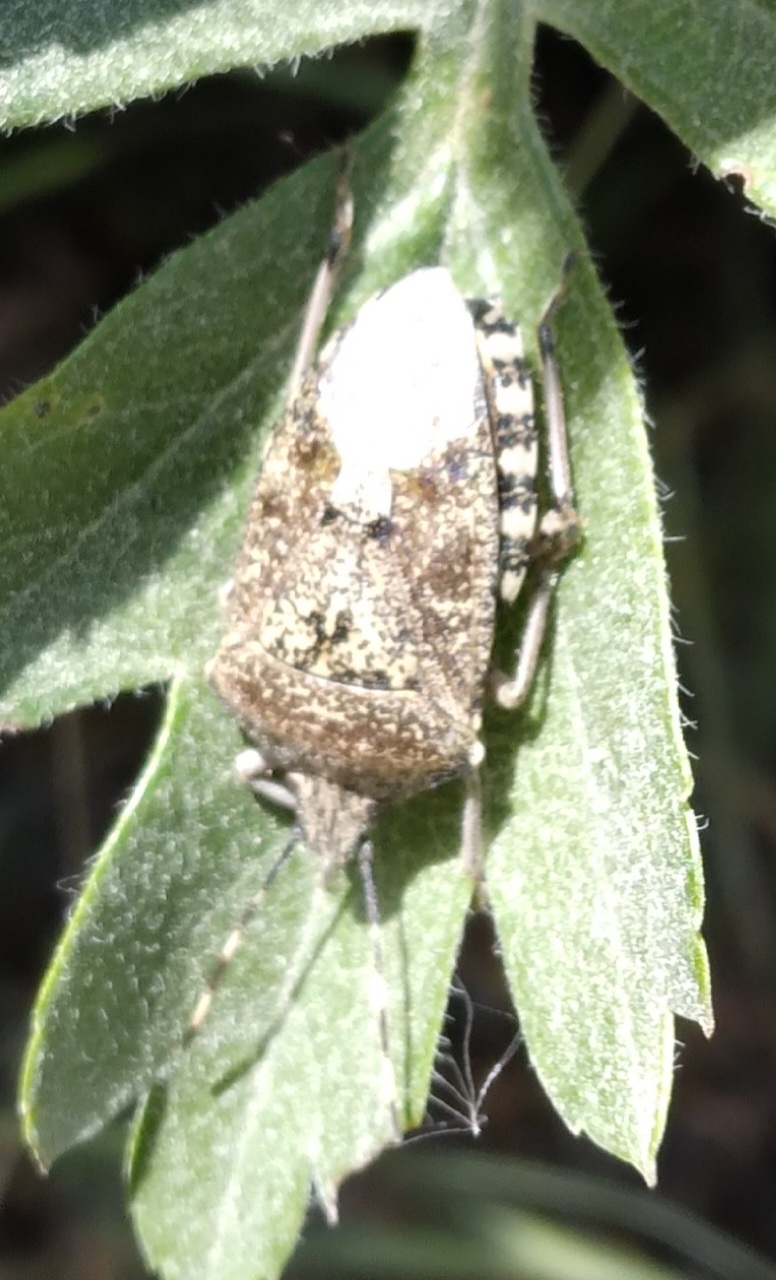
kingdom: Animalia
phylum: Arthropoda
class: Insecta
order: Hemiptera
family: Pentatomidae
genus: Rhaphigaster
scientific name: Rhaphigaster nebulosa
